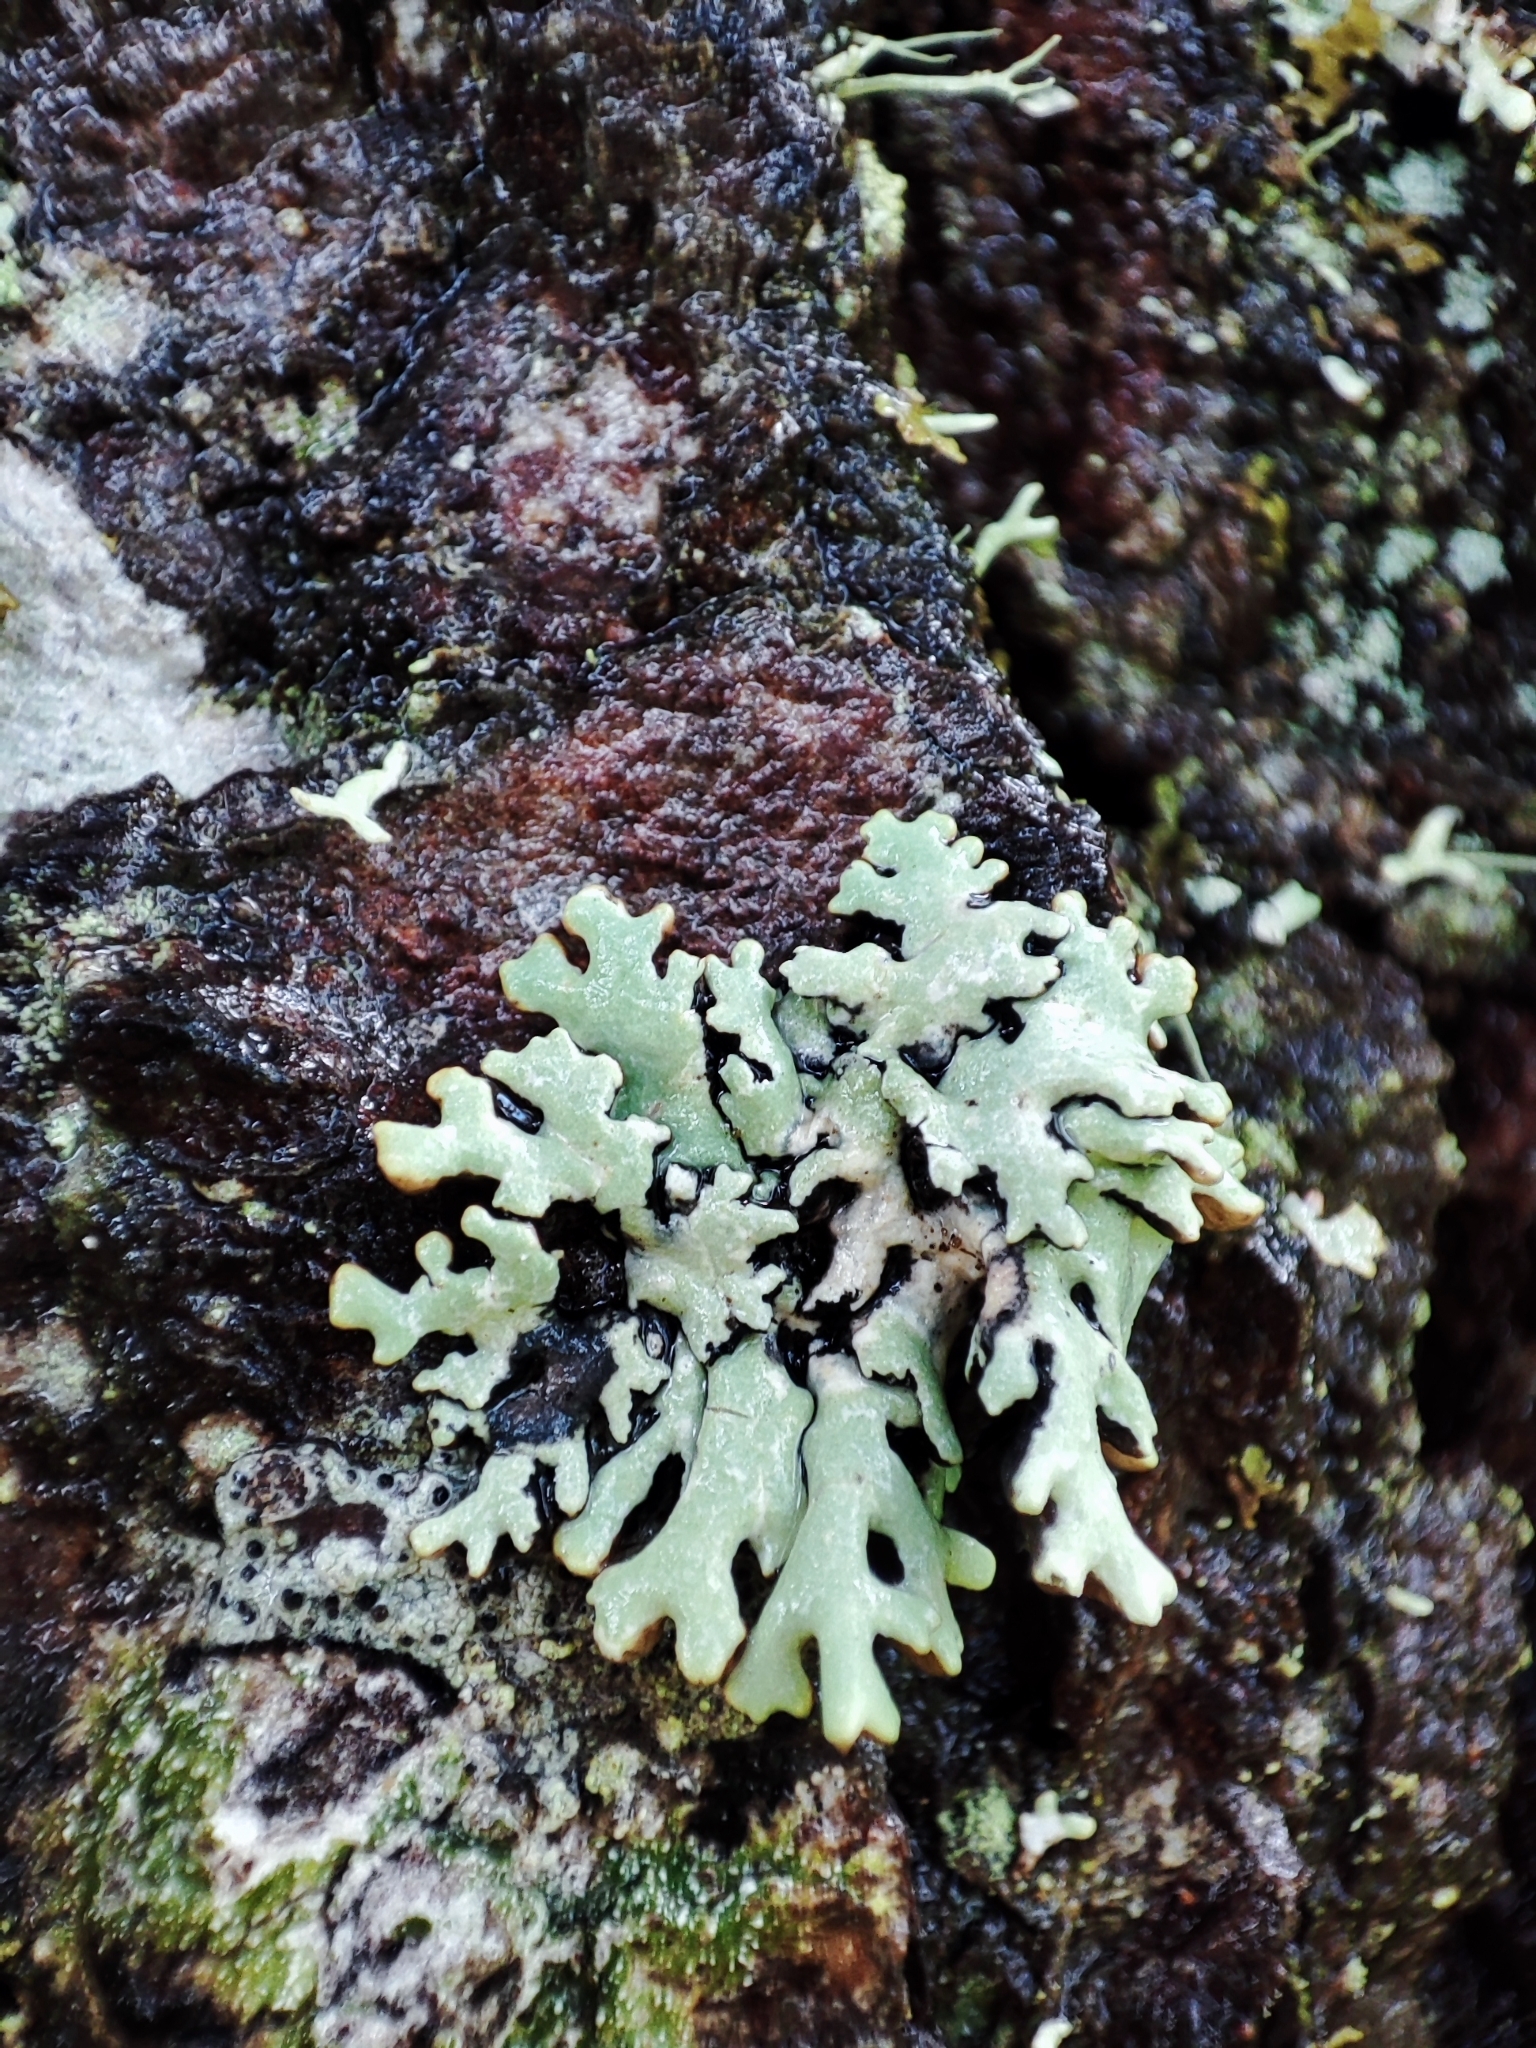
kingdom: Fungi
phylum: Ascomycota
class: Lecanoromycetes
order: Lecanorales
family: Parmeliaceae
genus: Hypogymnia
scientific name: Hypogymnia physodes
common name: Dark crottle
